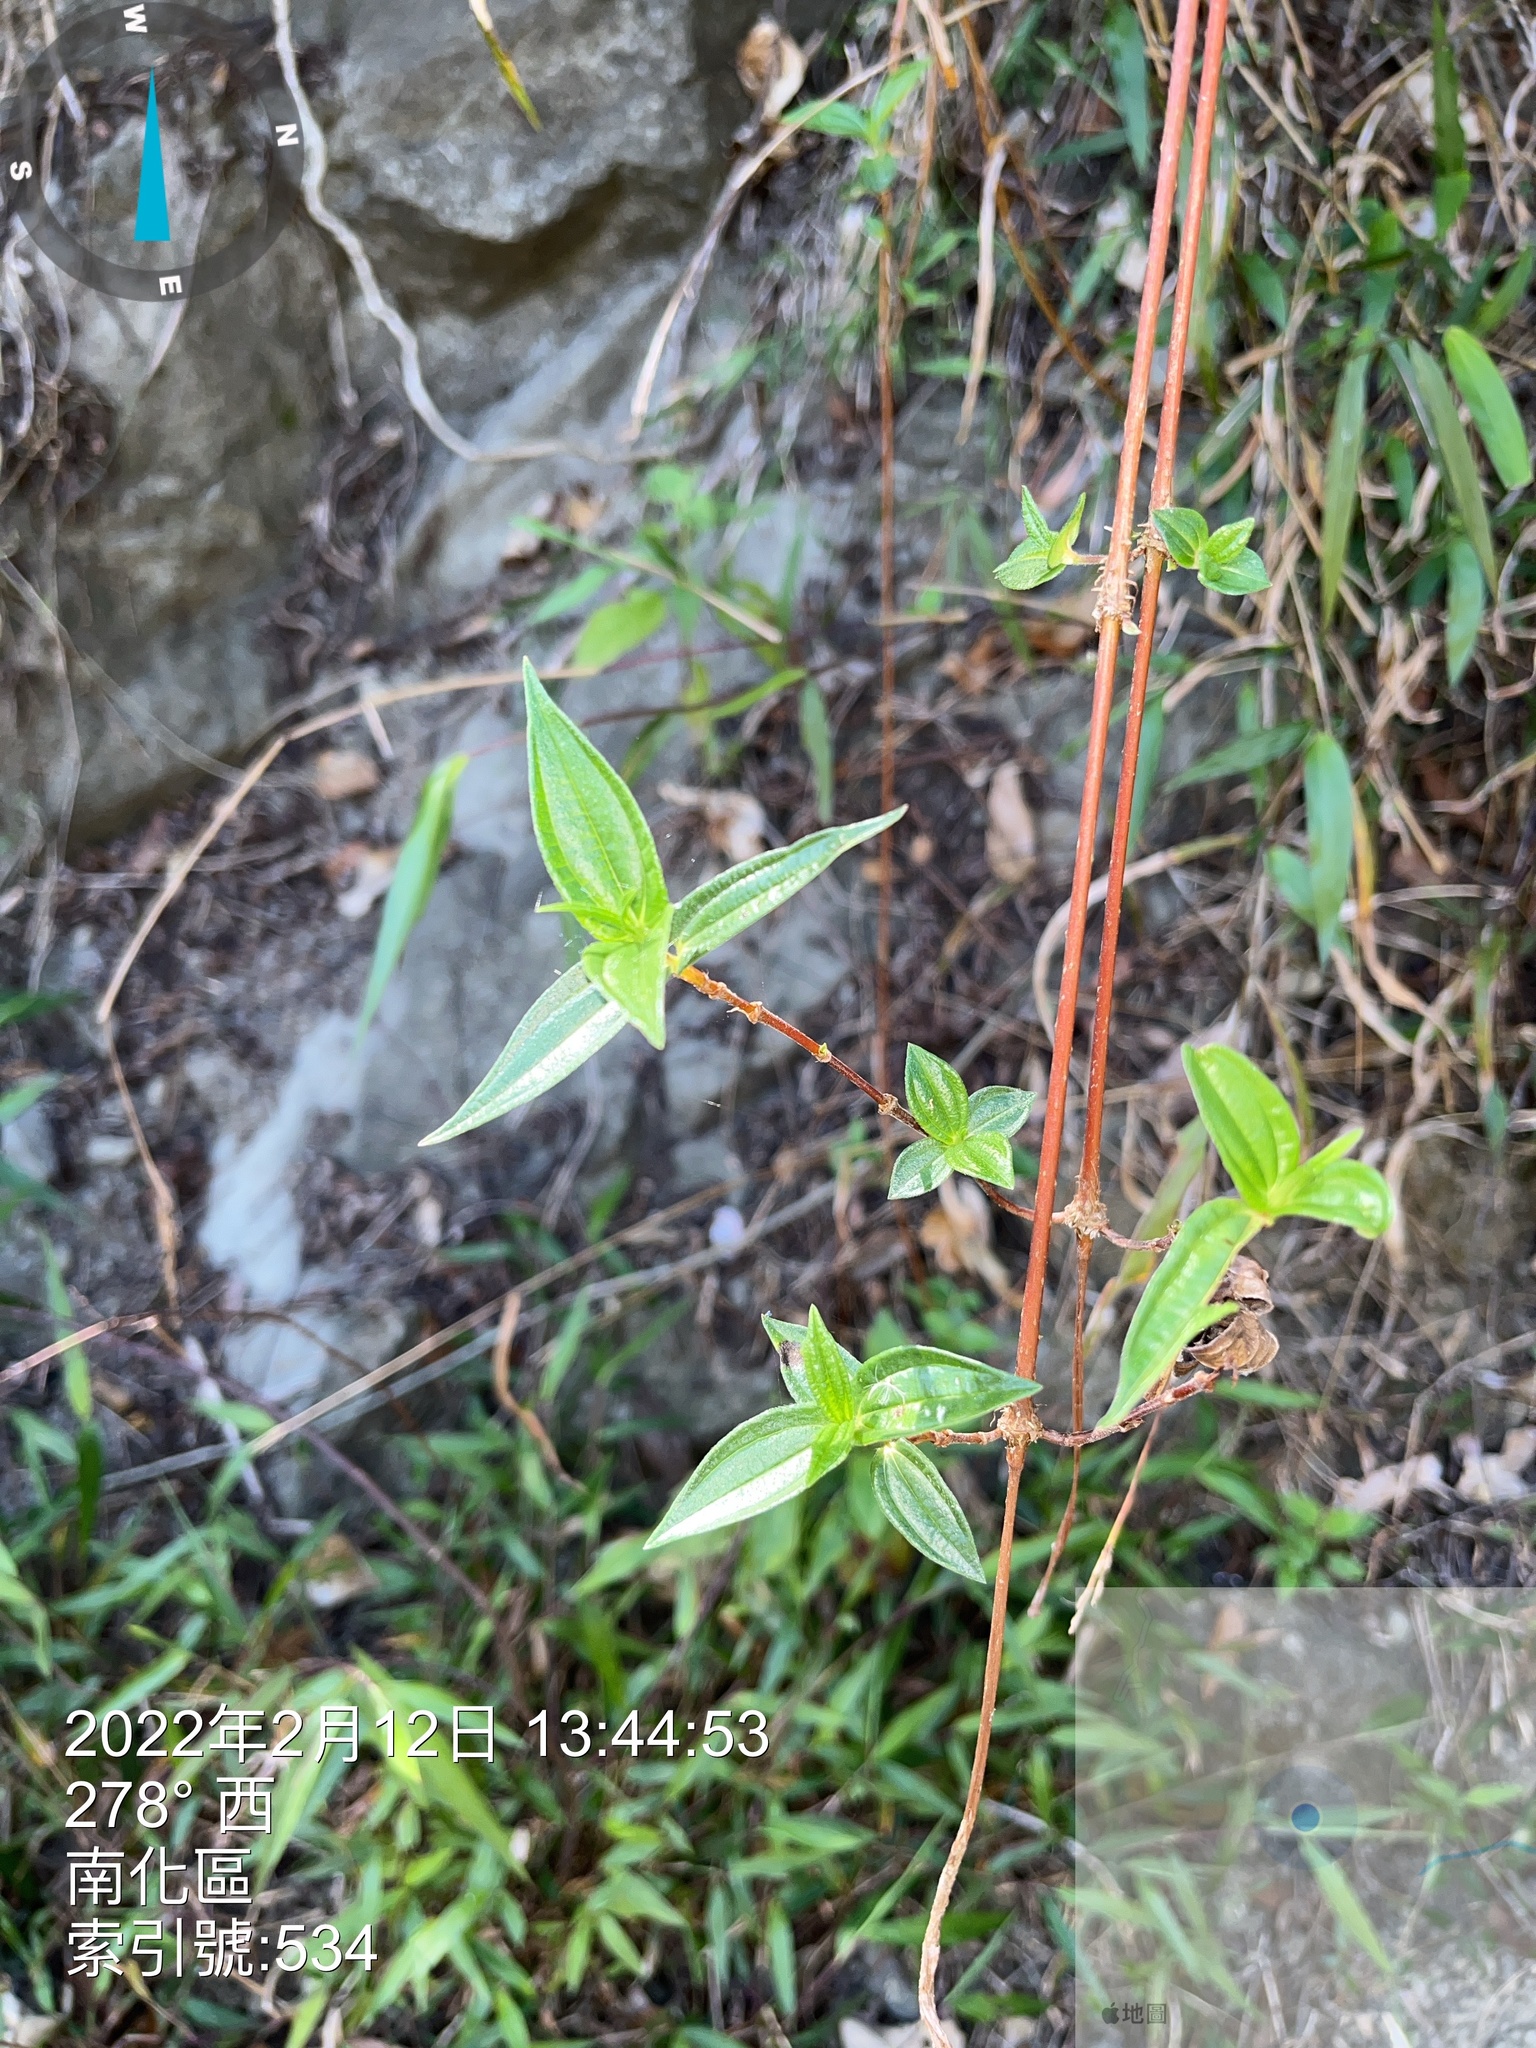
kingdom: Plantae
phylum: Tracheophyta
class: Magnoliopsida
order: Rosales
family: Urticaceae
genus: Gonostegia
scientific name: Gonostegia triandra
